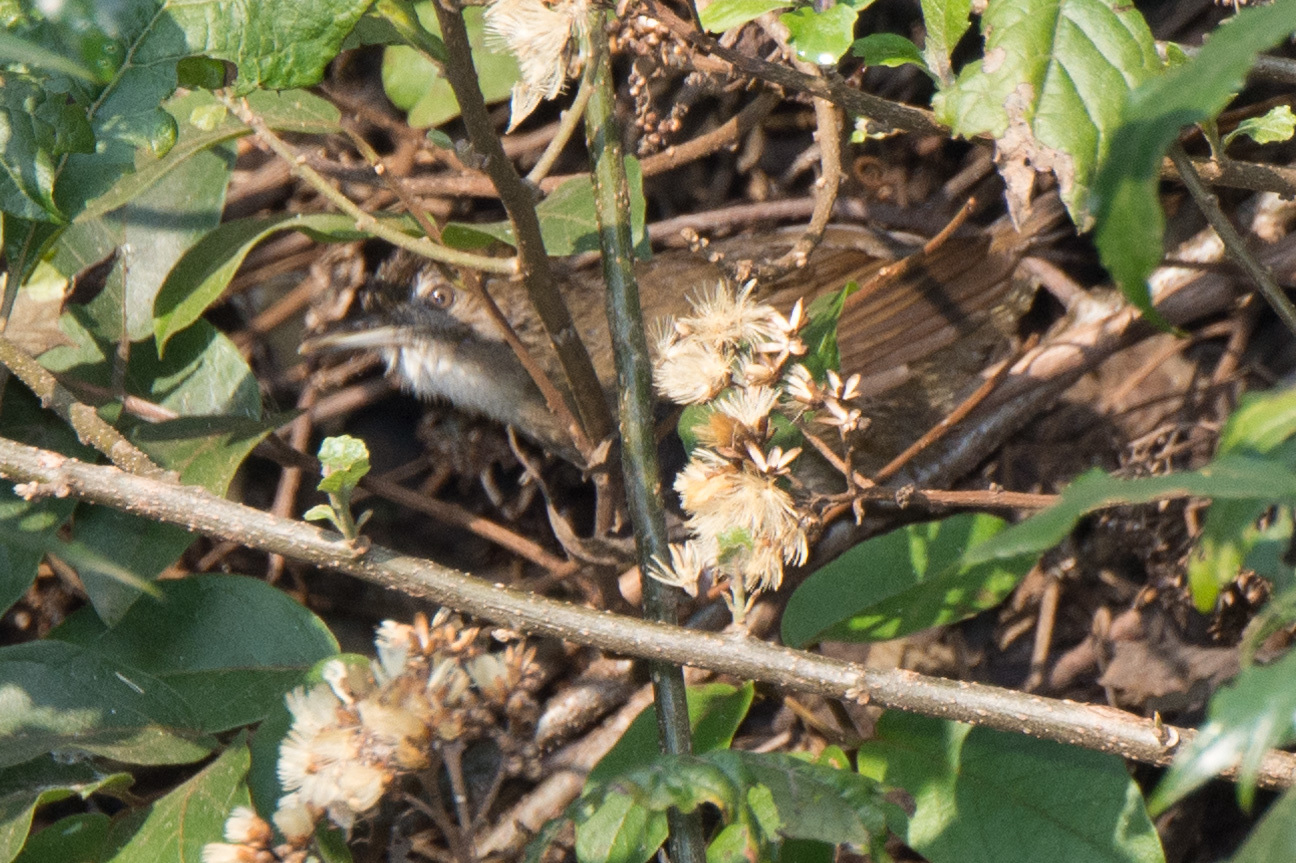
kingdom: Animalia
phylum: Chordata
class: Aves
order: Passeriformes
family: Pycnonotidae
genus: Phyllastrephus
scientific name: Phyllastrephus terrestris
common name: Terrestrial brownbul
